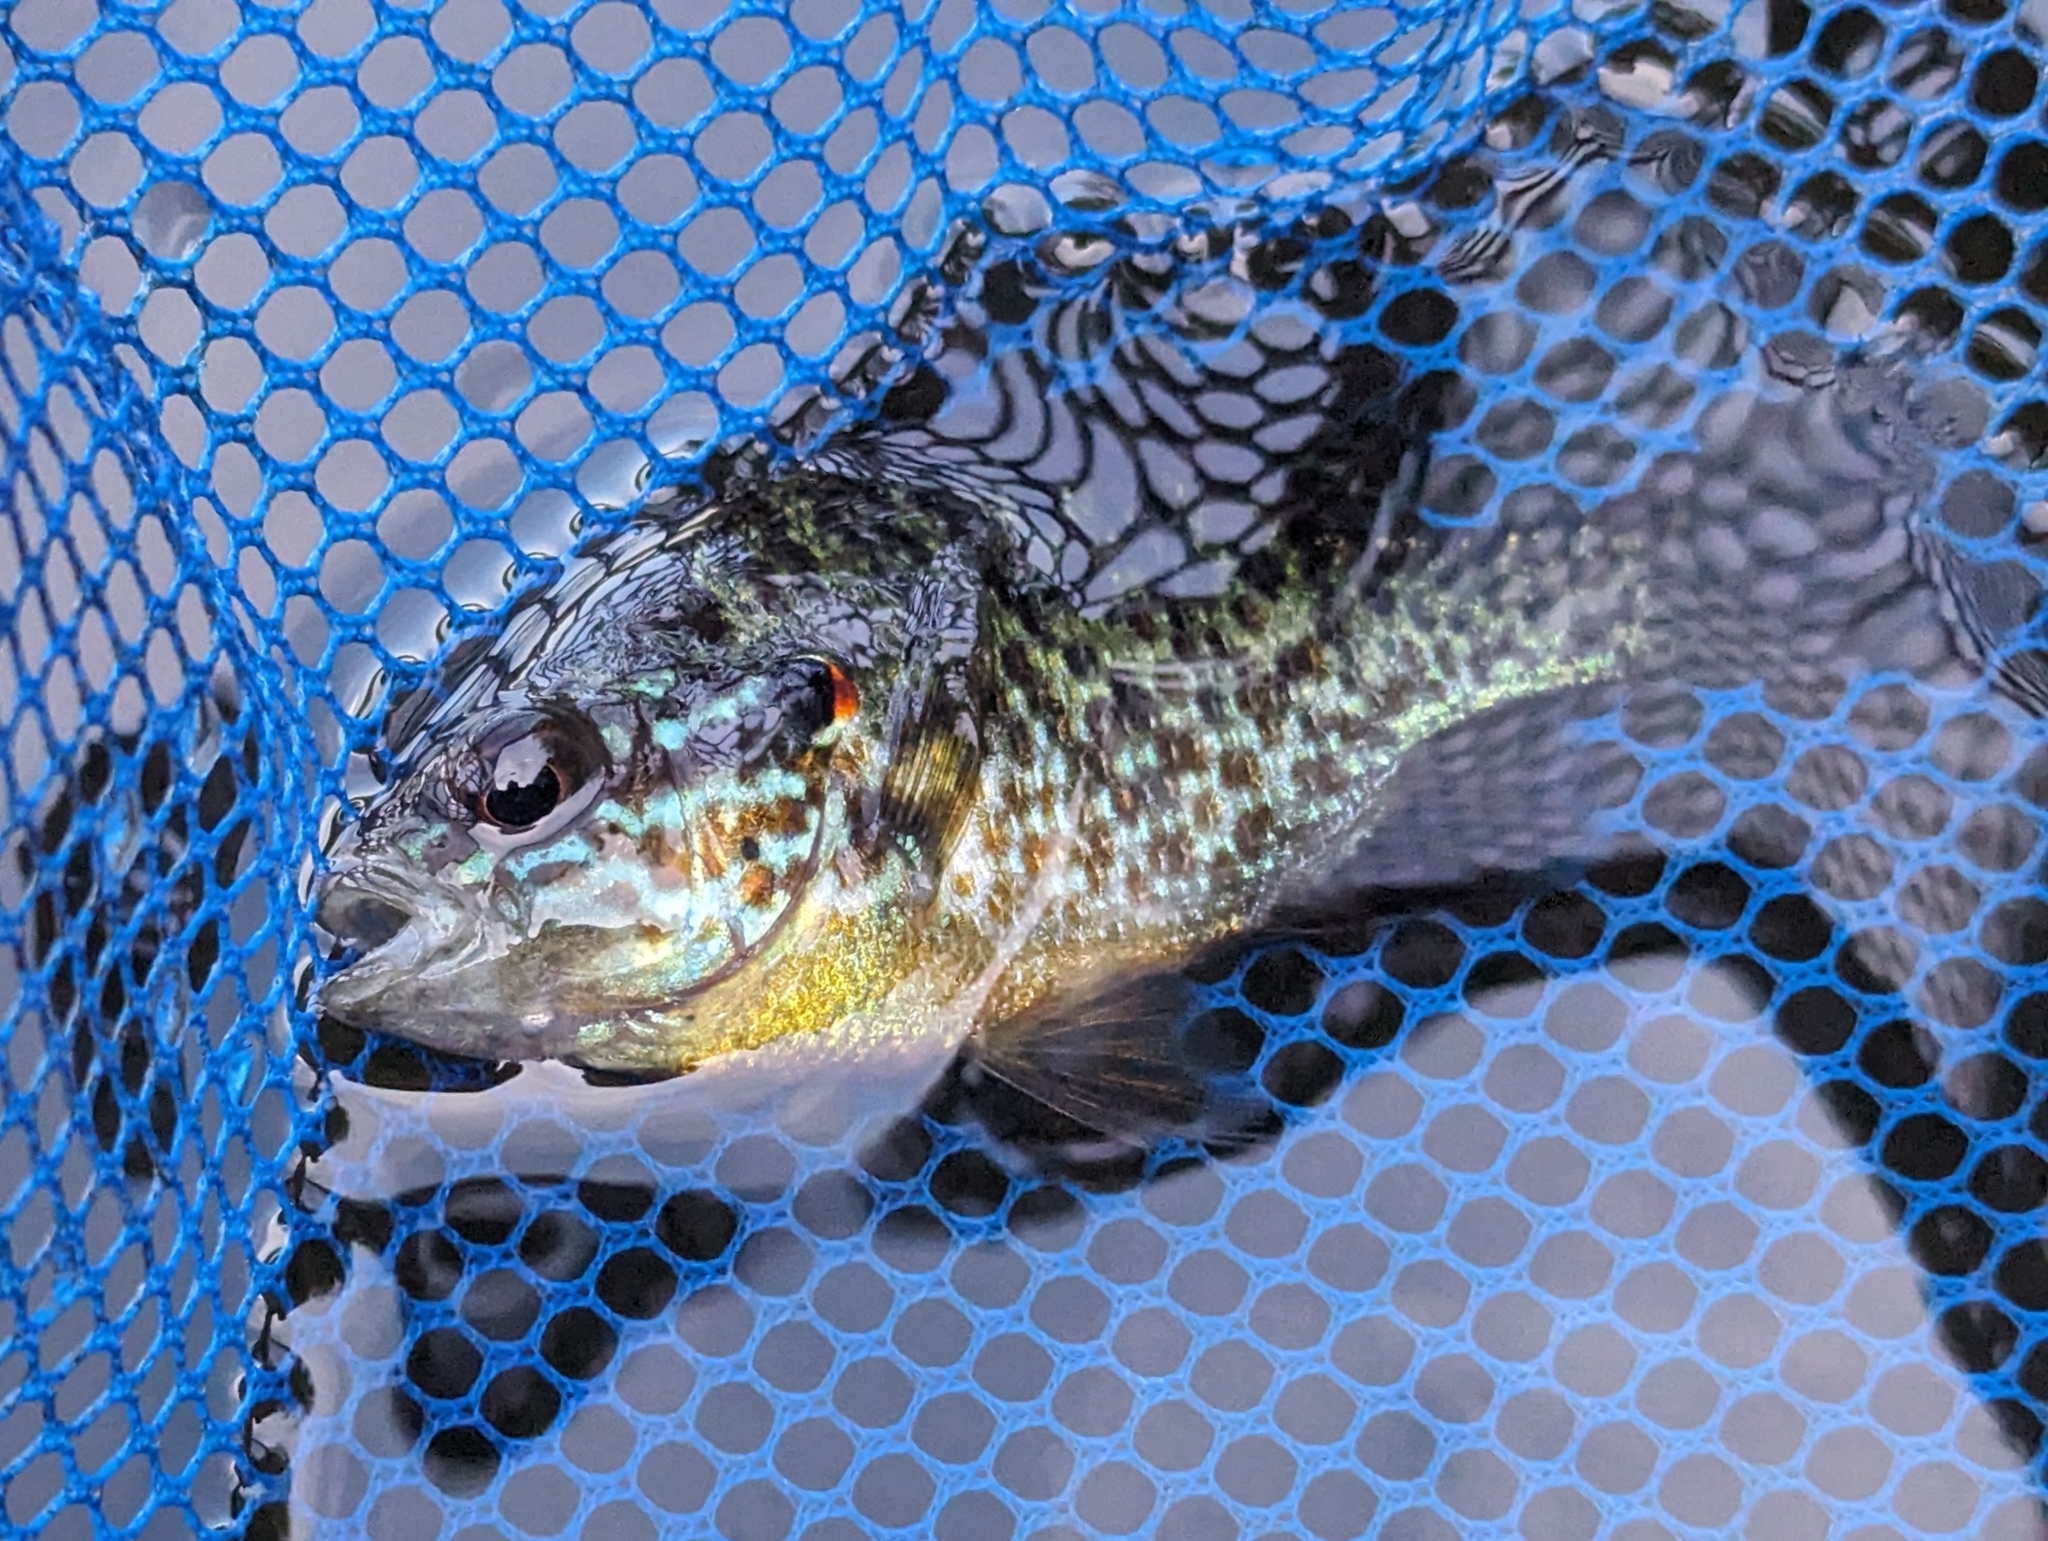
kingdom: Animalia
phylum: Chordata
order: Perciformes
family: Centrarchidae
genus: Lepomis
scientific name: Lepomis gibbosus
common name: Pumpkinseed
